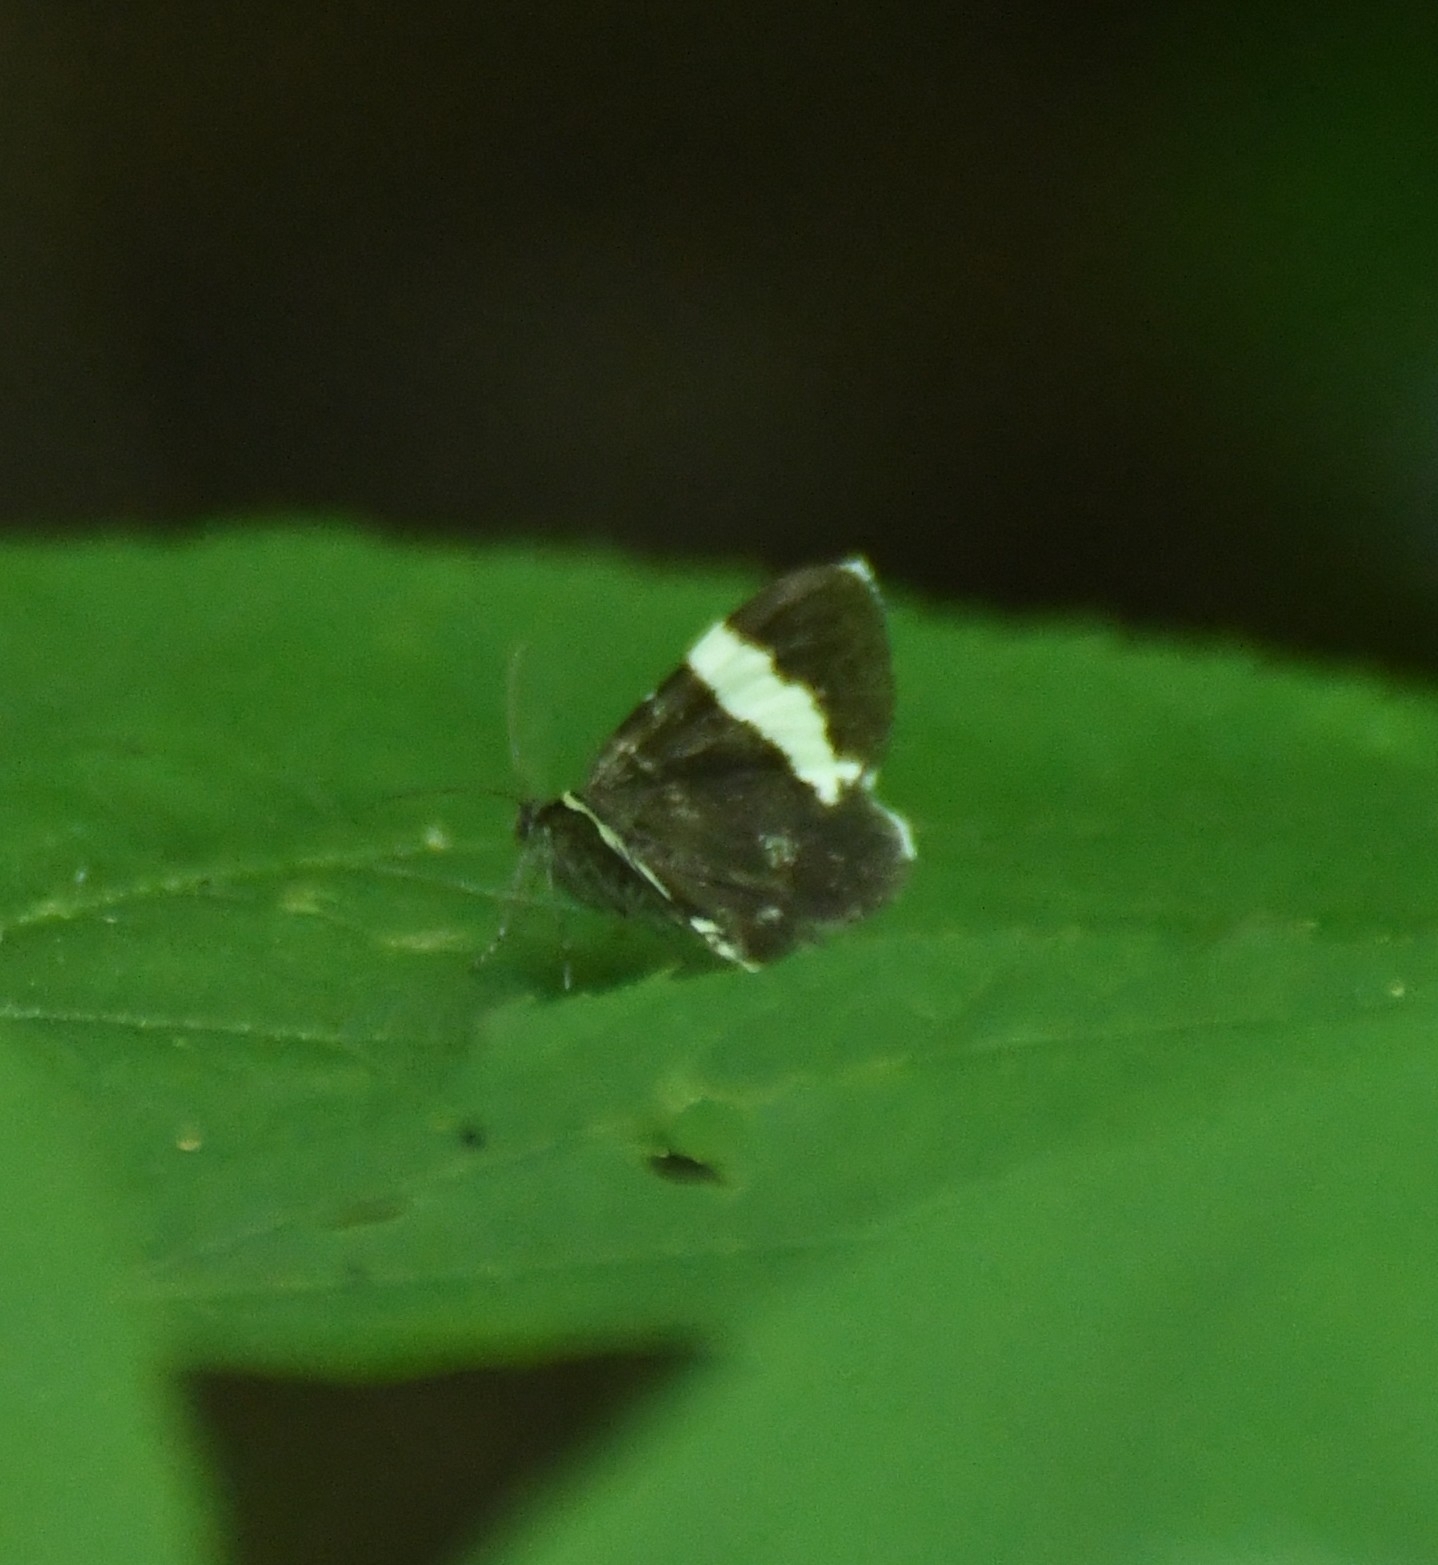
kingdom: Animalia
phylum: Arthropoda
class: Insecta
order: Lepidoptera
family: Geometridae
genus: Trichodezia
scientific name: Trichodezia albovittata
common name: White striped black
